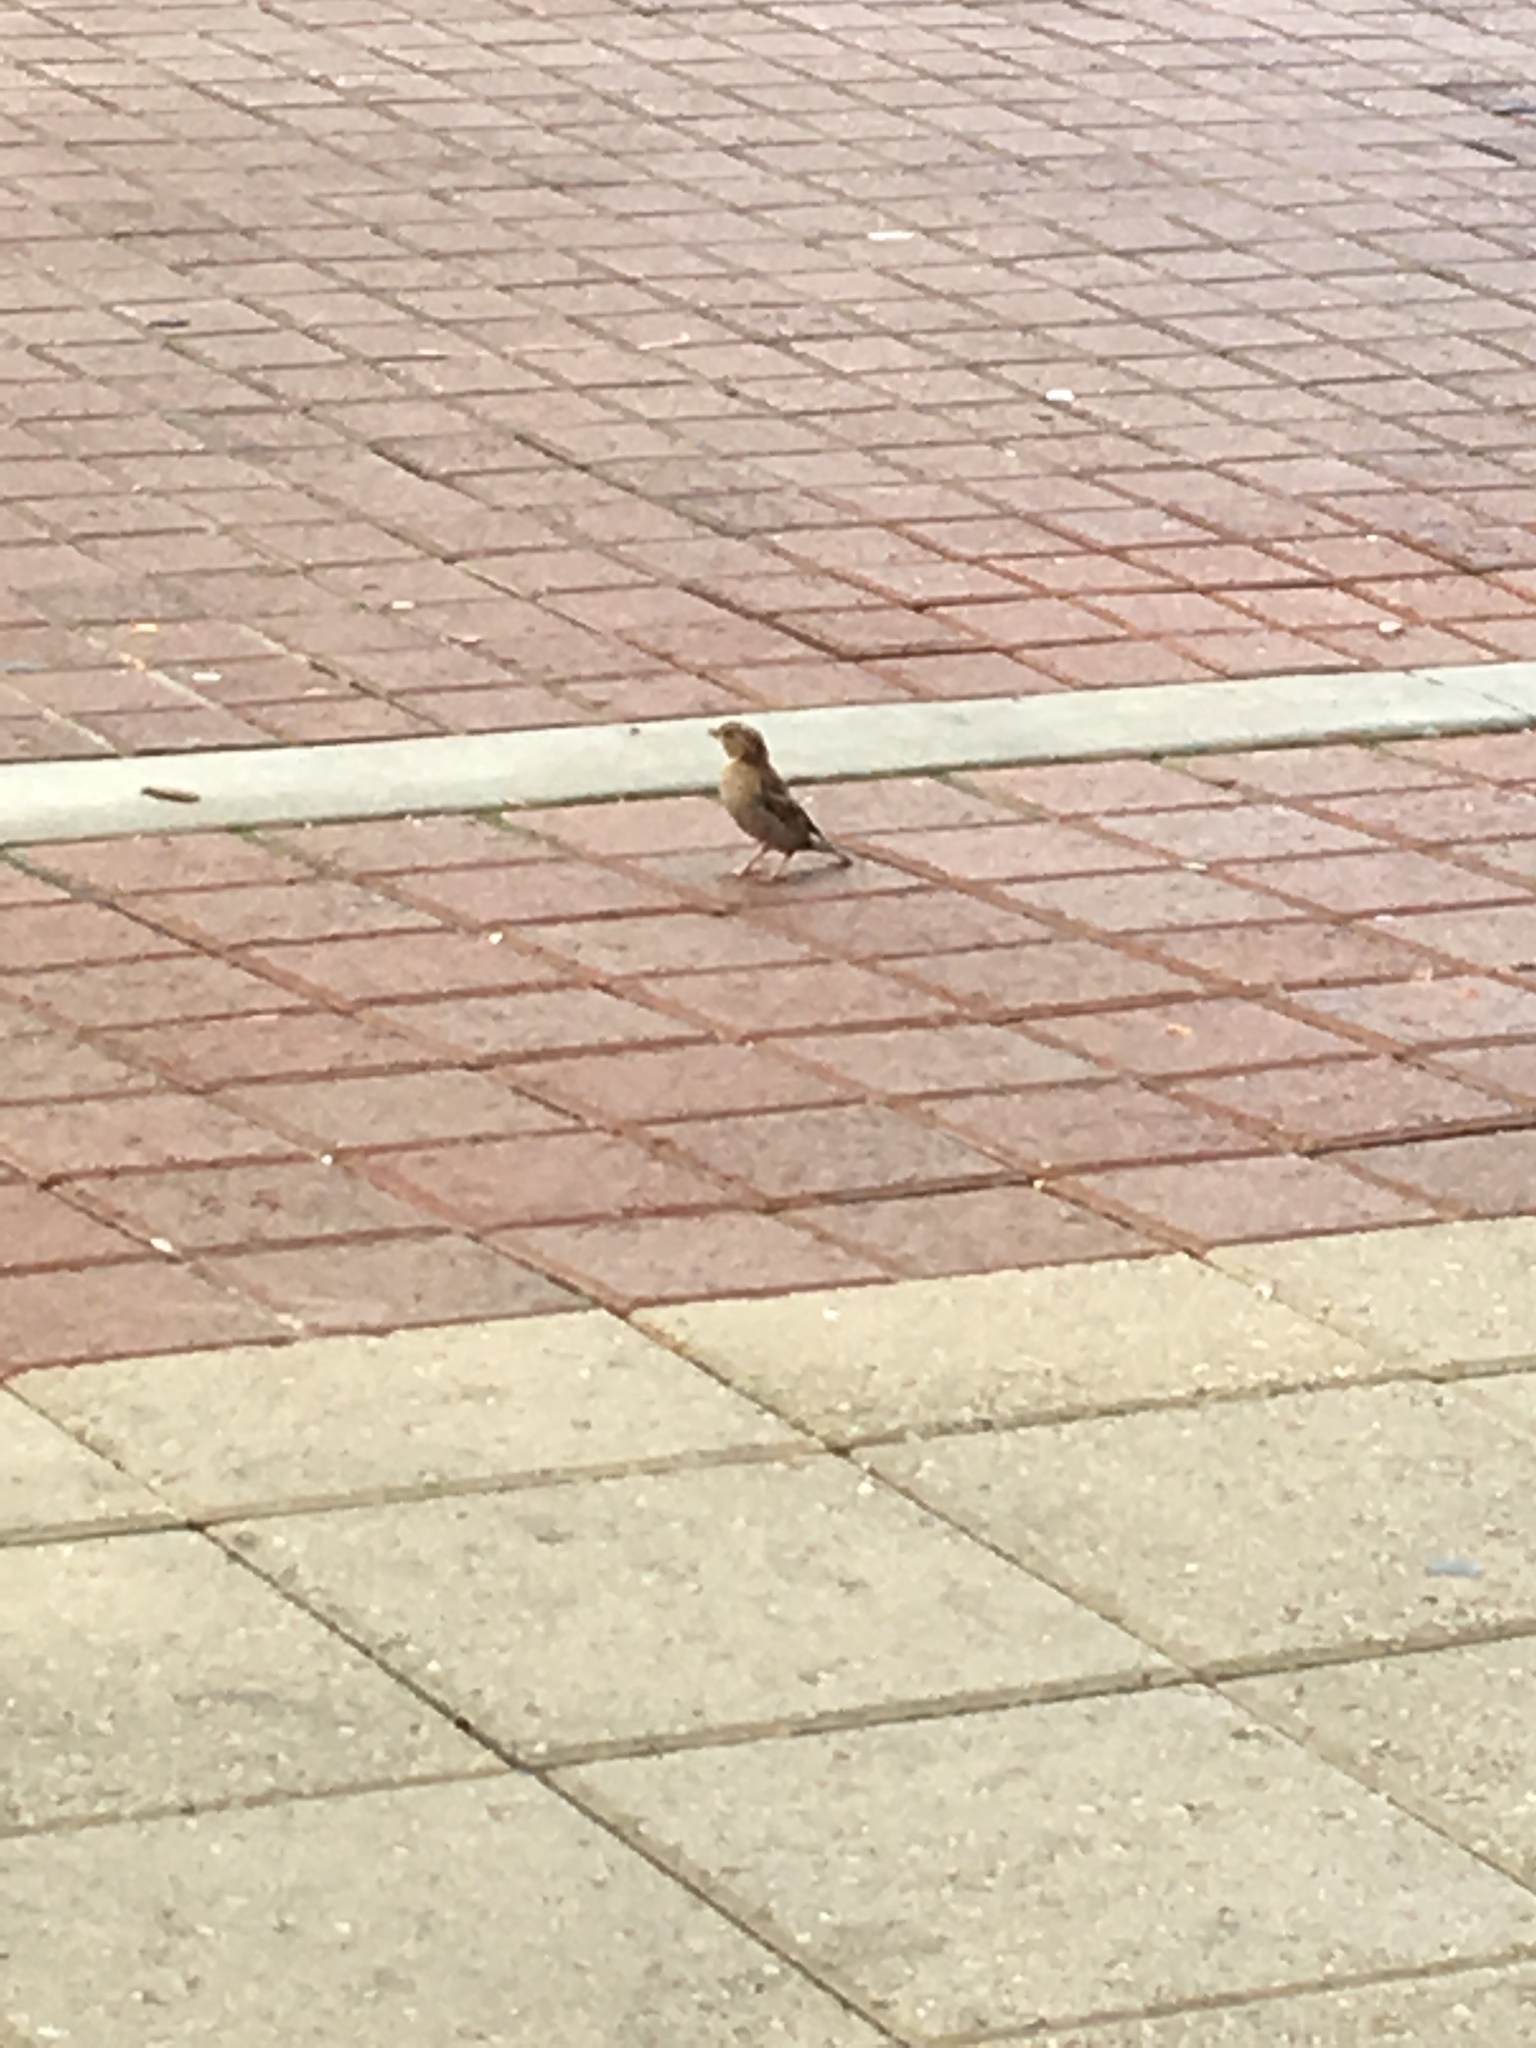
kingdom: Animalia
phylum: Chordata
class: Aves
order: Passeriformes
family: Passeridae
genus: Passer
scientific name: Passer domesticus
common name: House sparrow
